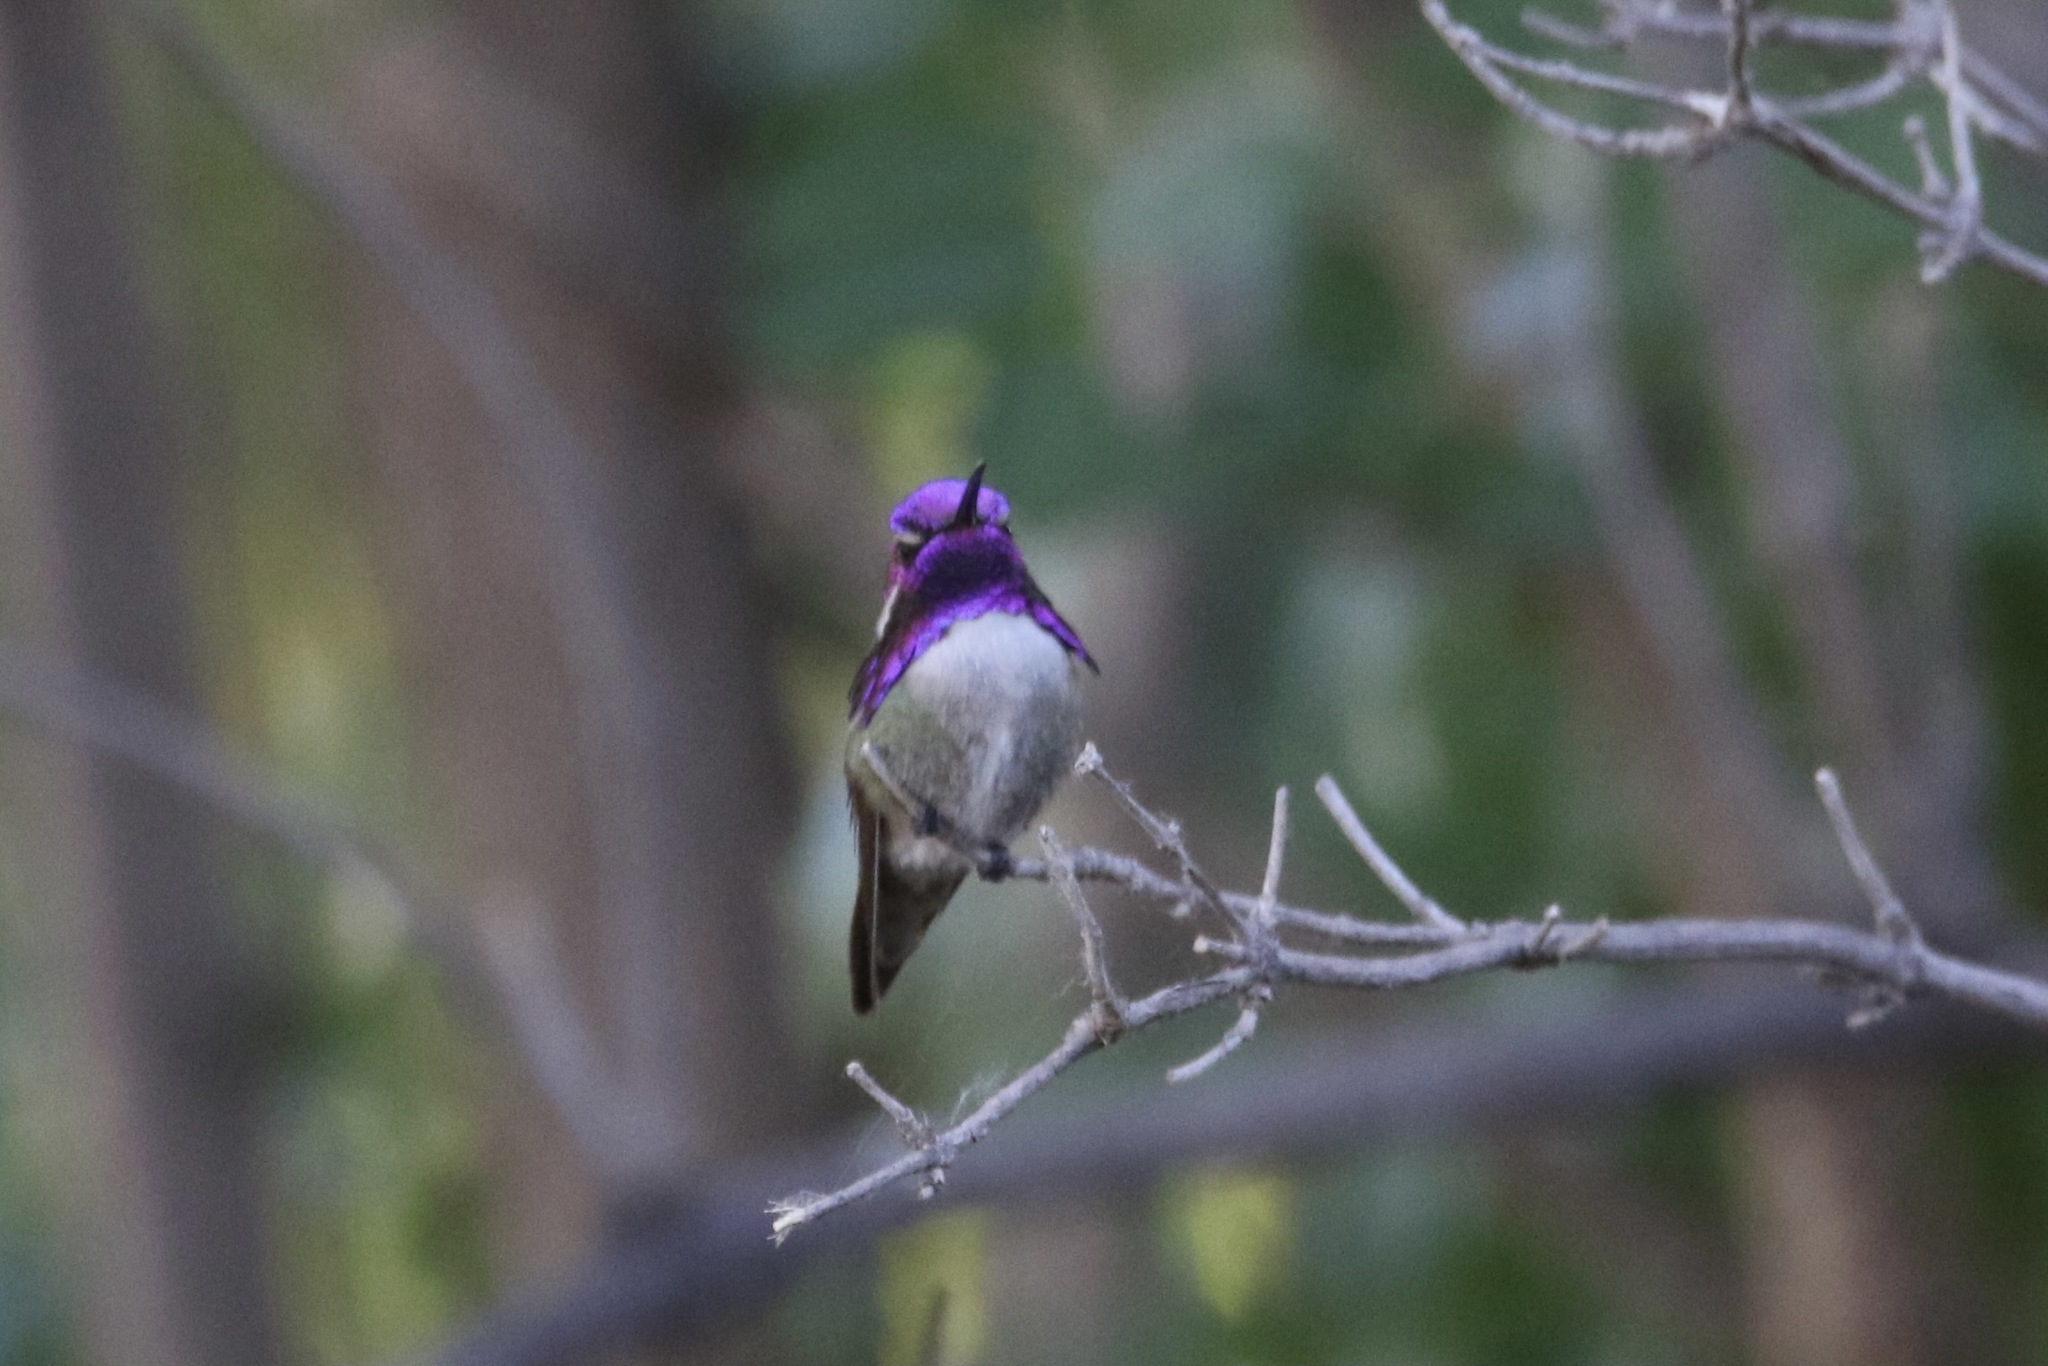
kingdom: Animalia
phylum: Chordata
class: Aves
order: Apodiformes
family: Trochilidae
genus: Calypte
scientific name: Calypte costae
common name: Costa's hummingbird
